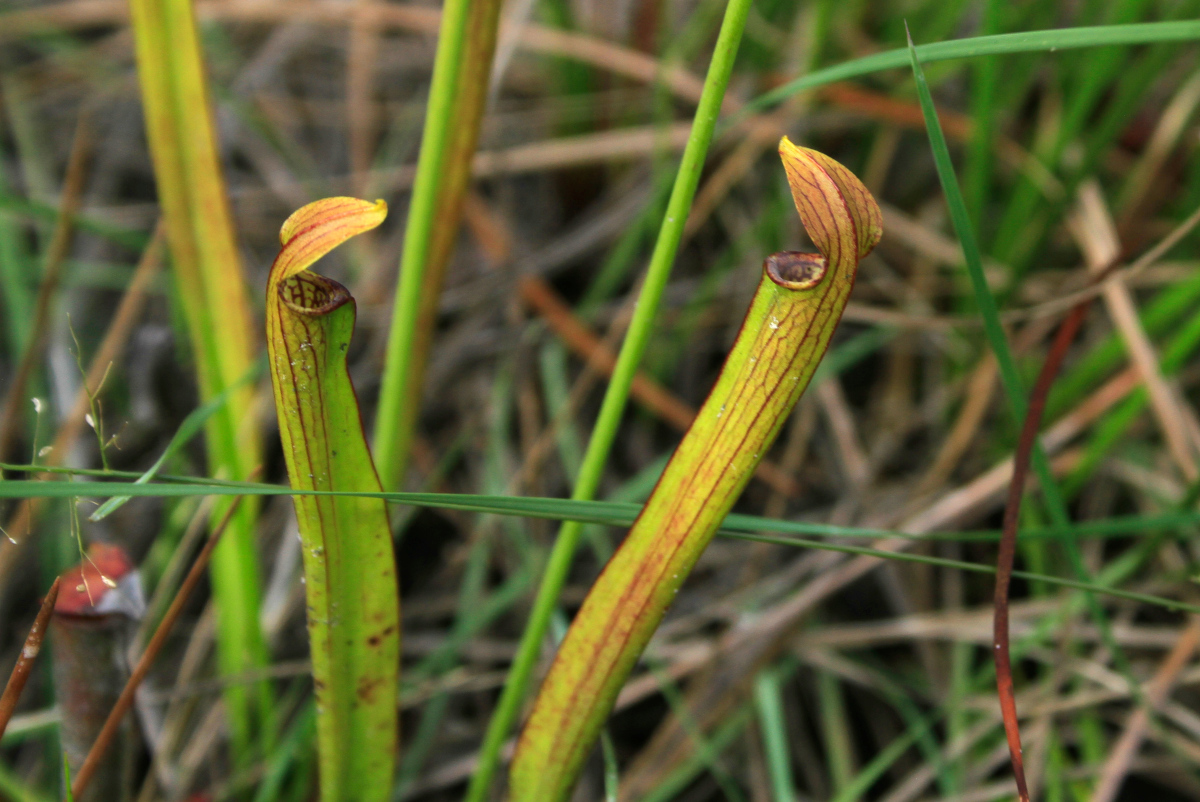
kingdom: Plantae
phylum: Tracheophyta
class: Magnoliopsida
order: Ericales
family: Sarraceniaceae
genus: Sarracenia
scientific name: Sarracenia rubra
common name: Sweet pitcherplant
